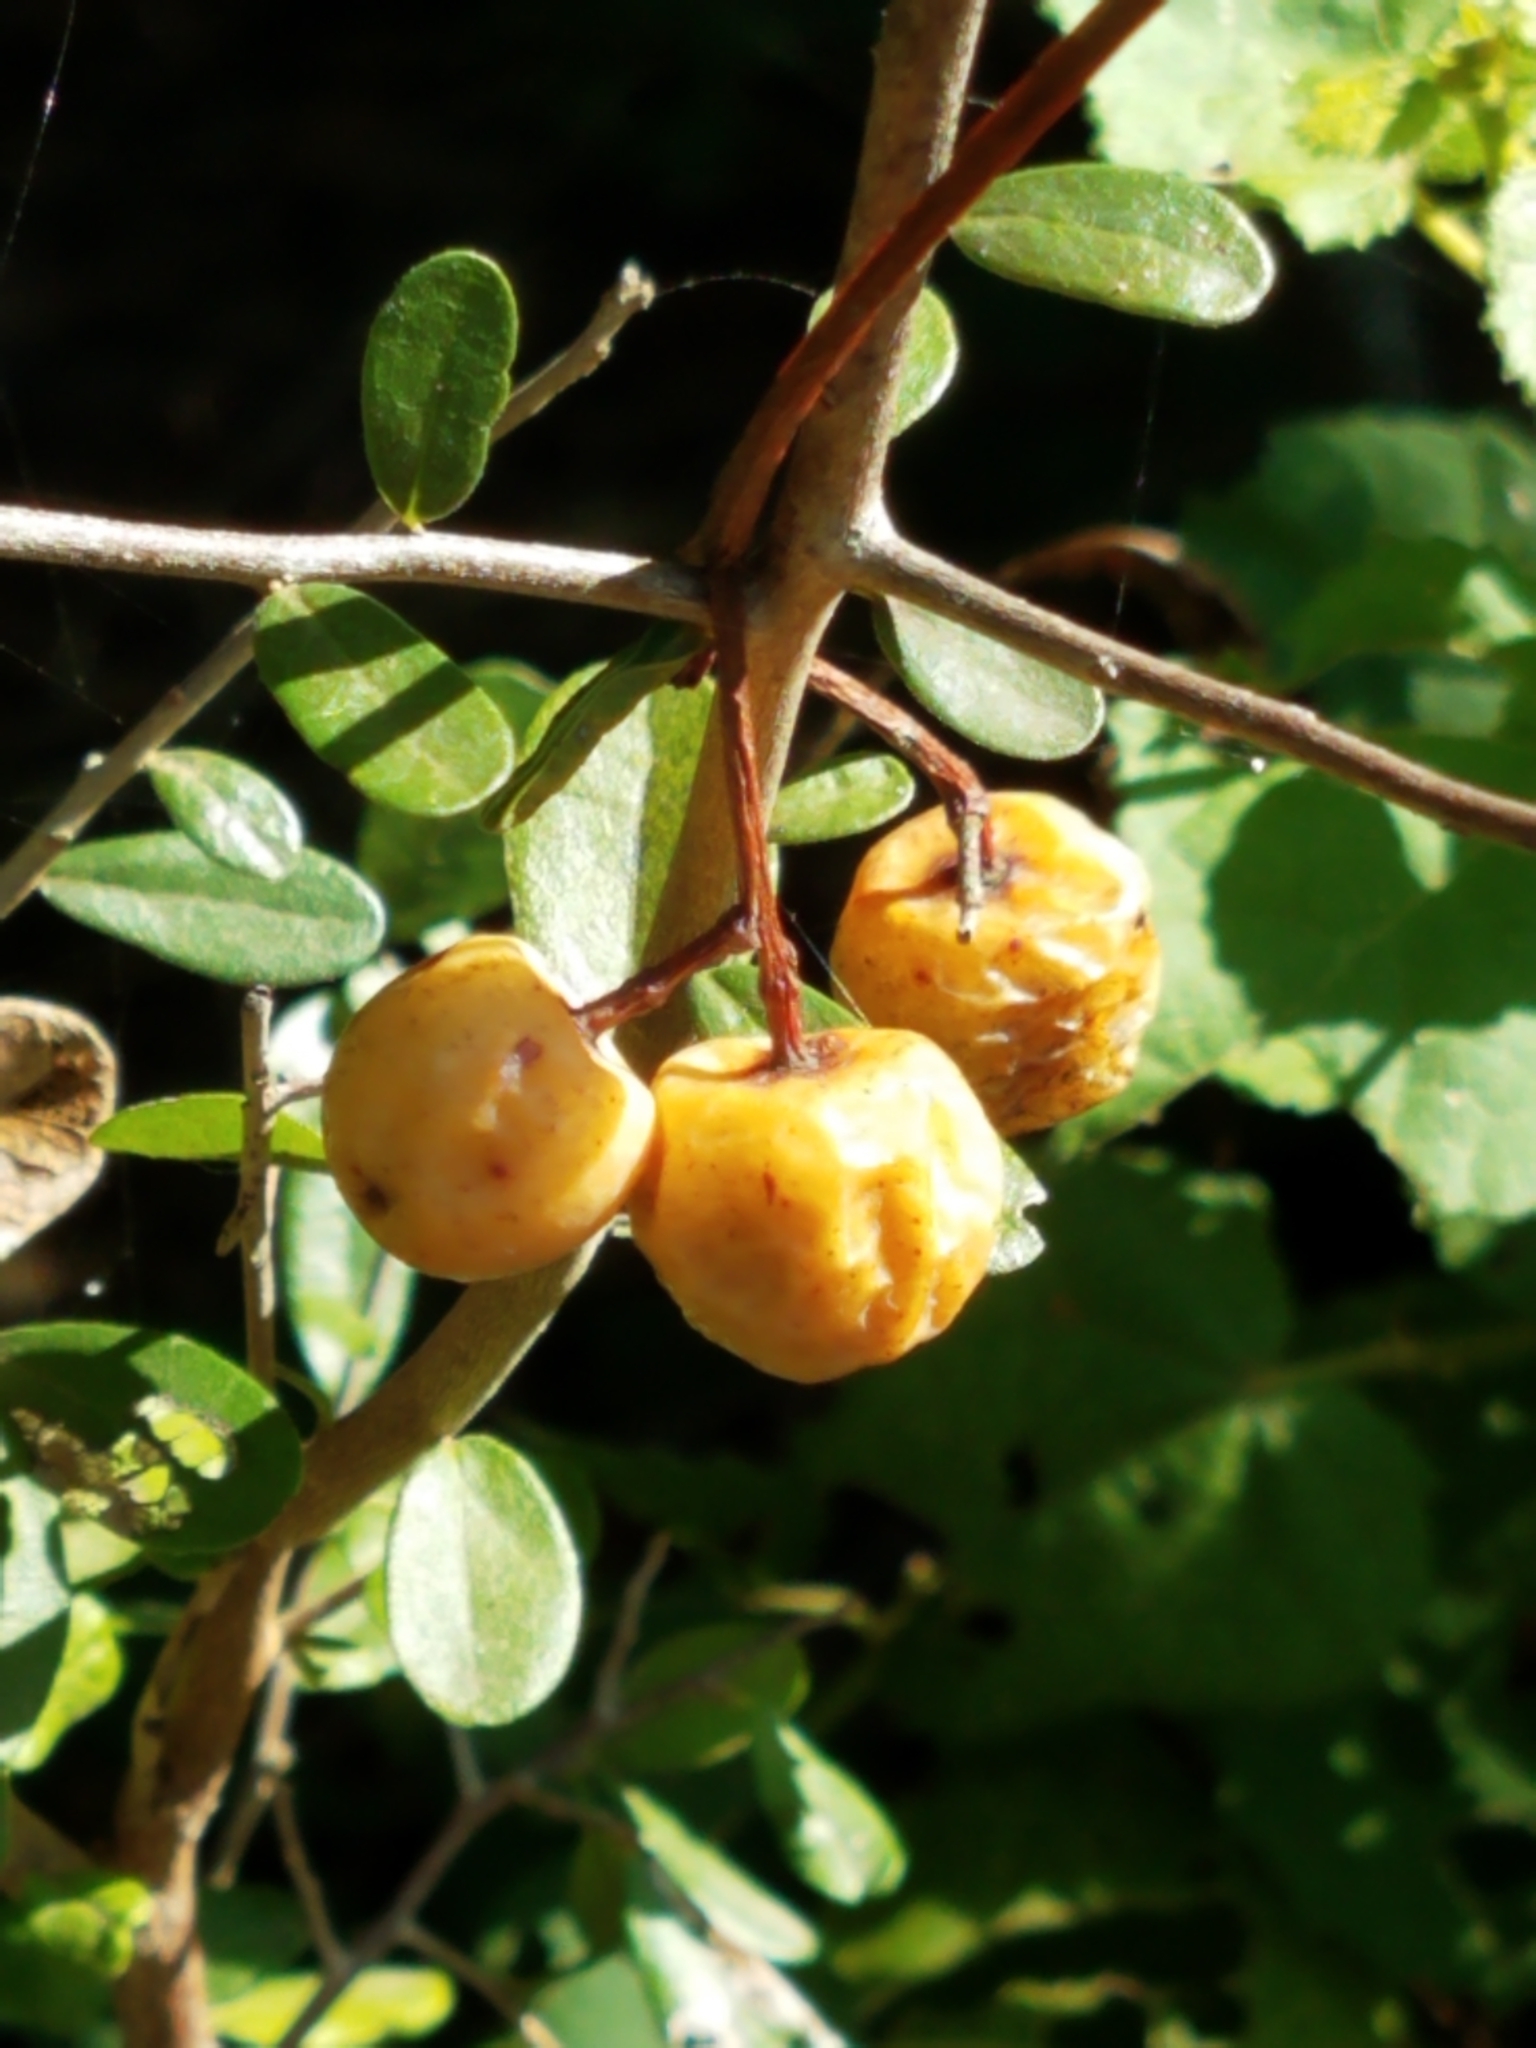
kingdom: Plantae
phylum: Tracheophyta
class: Magnoliopsida
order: Sapindales
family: Meliaceae
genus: Melia
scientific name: Melia azedarach
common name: Chinaberrytree
